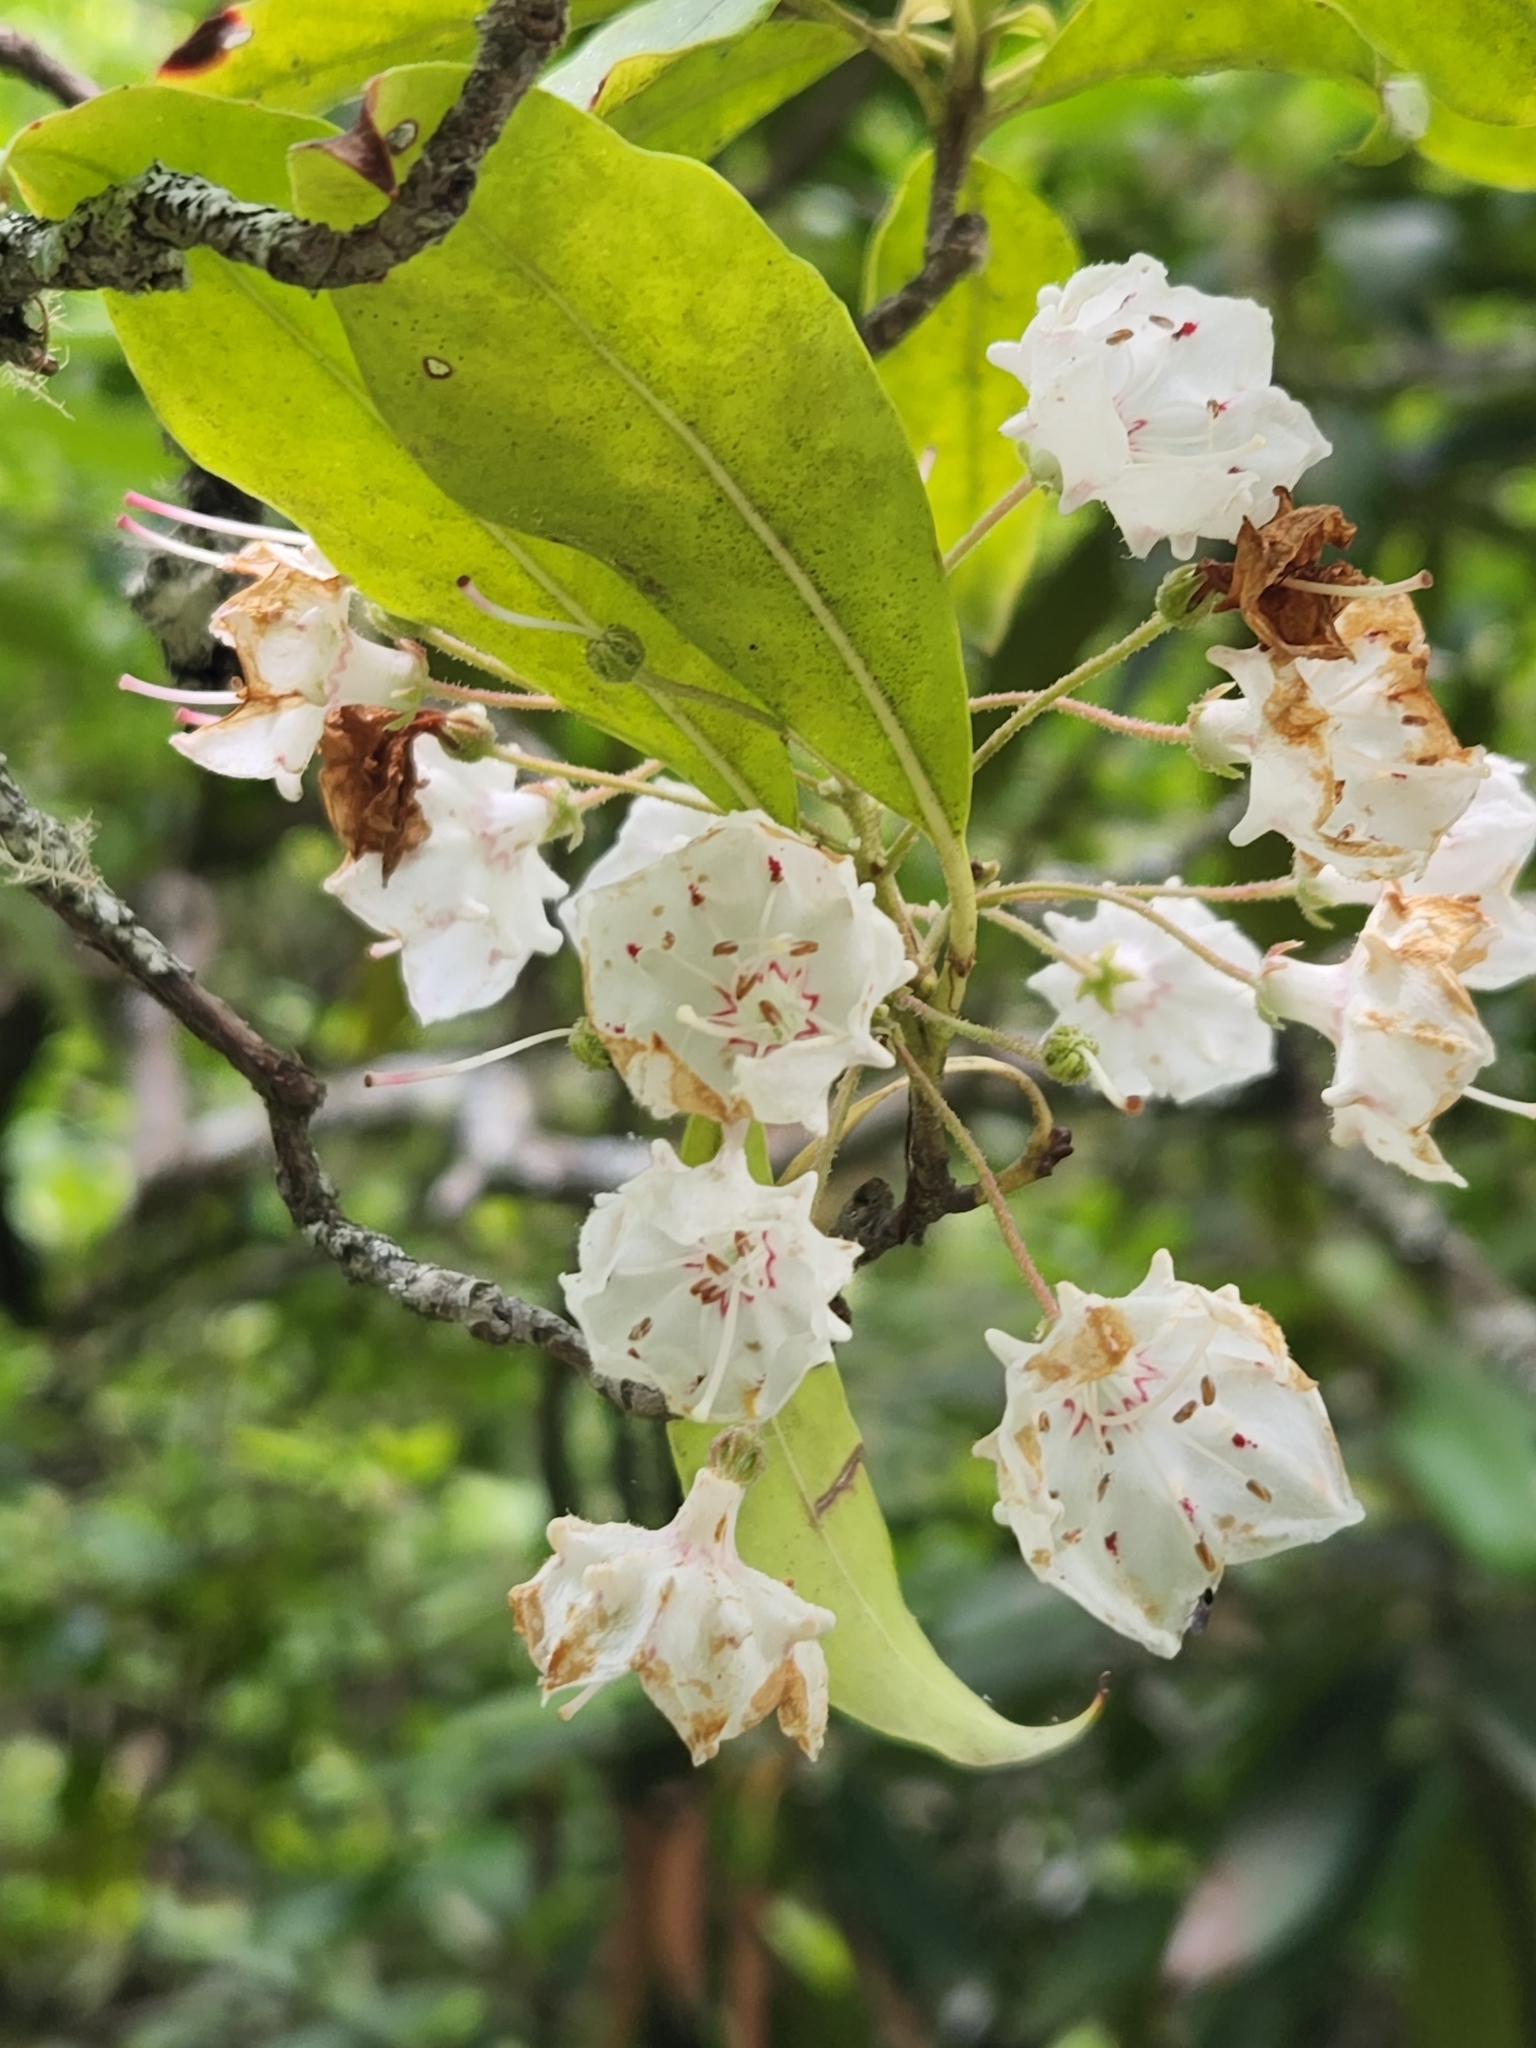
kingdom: Plantae
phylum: Tracheophyta
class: Magnoliopsida
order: Ericales
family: Ericaceae
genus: Kalmia
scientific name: Kalmia latifolia
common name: Mountain-laurel
